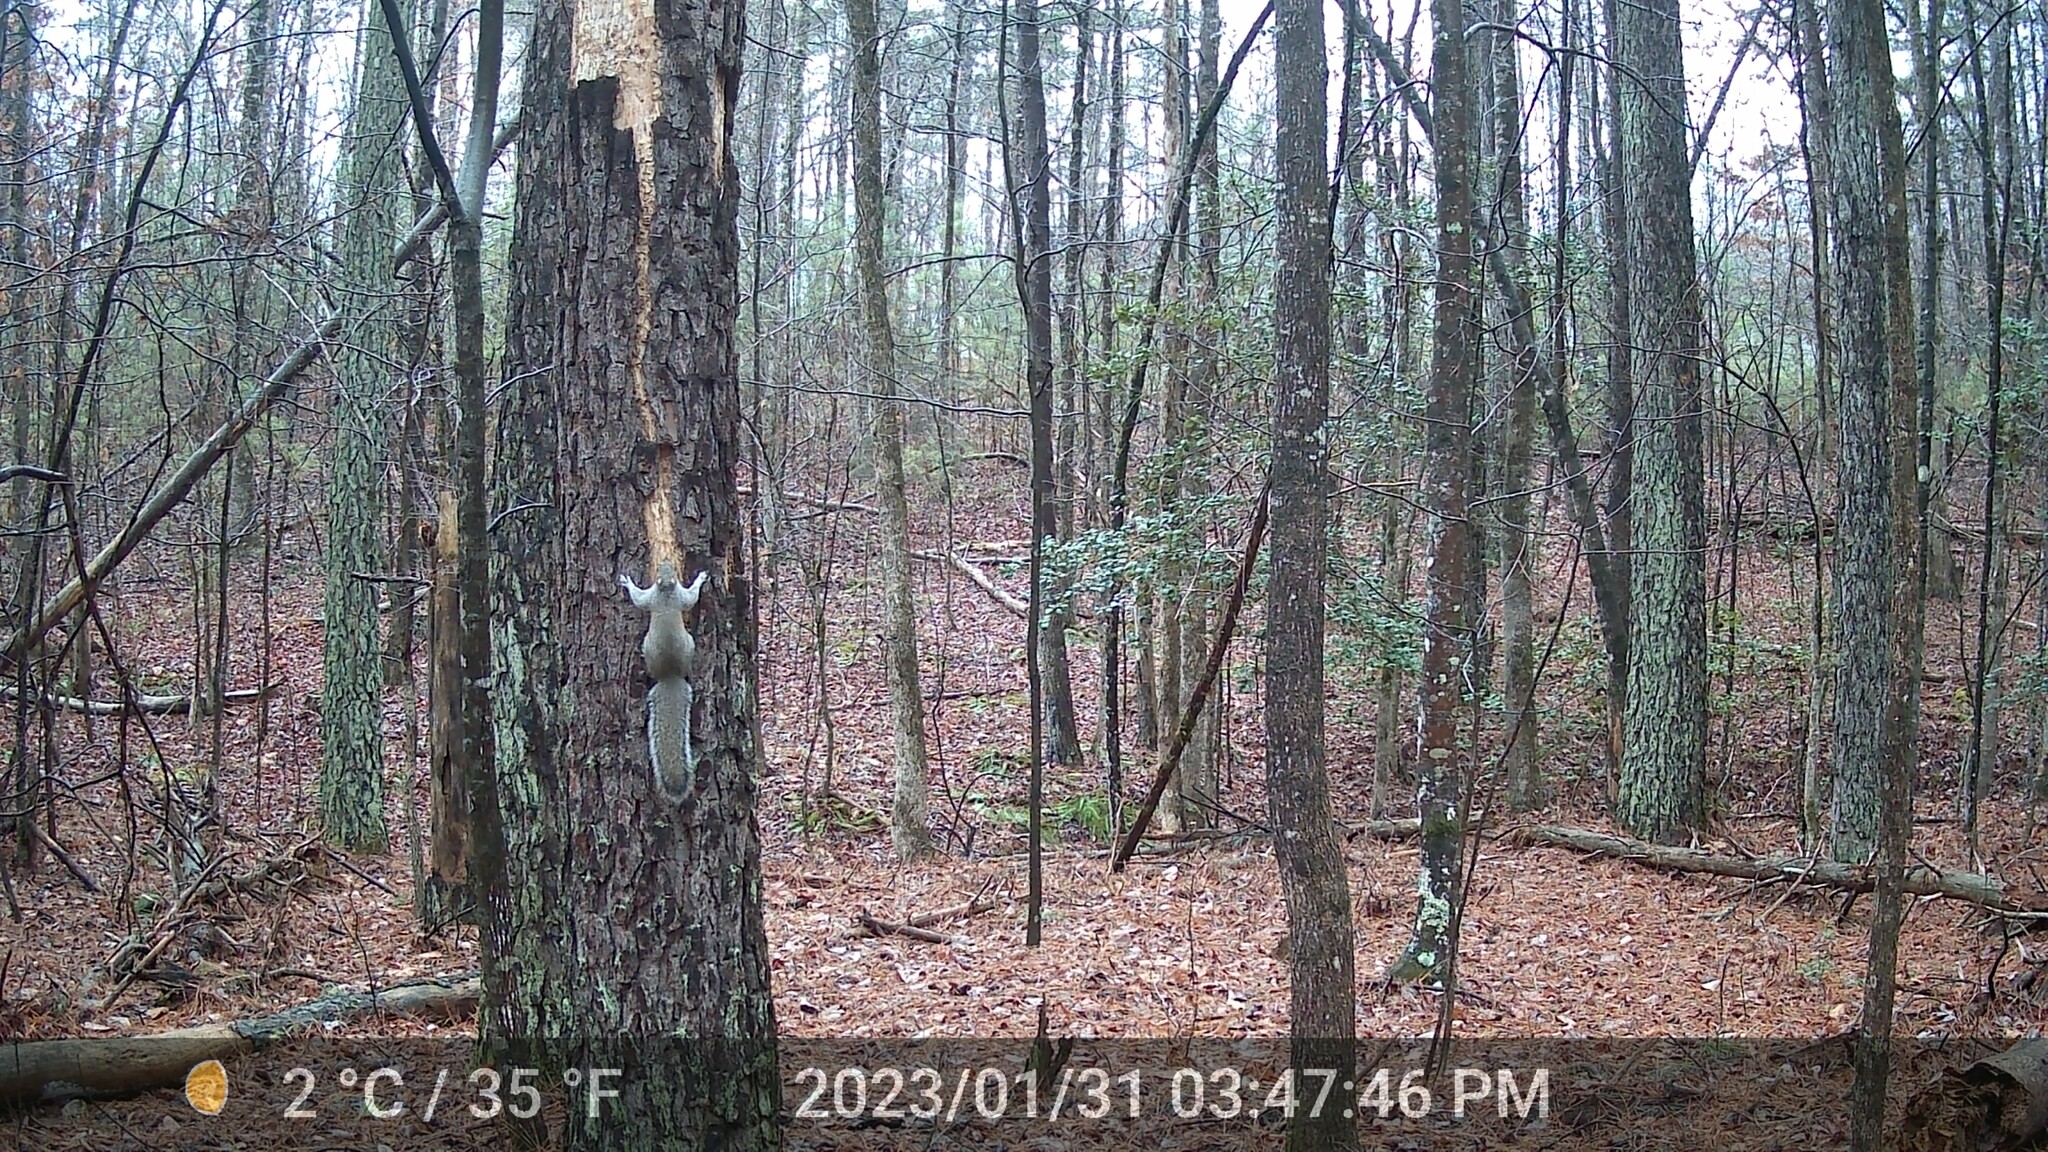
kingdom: Animalia
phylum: Chordata
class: Mammalia
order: Rodentia
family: Sciuridae
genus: Sciurus
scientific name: Sciurus carolinensis
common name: Eastern gray squirrel
